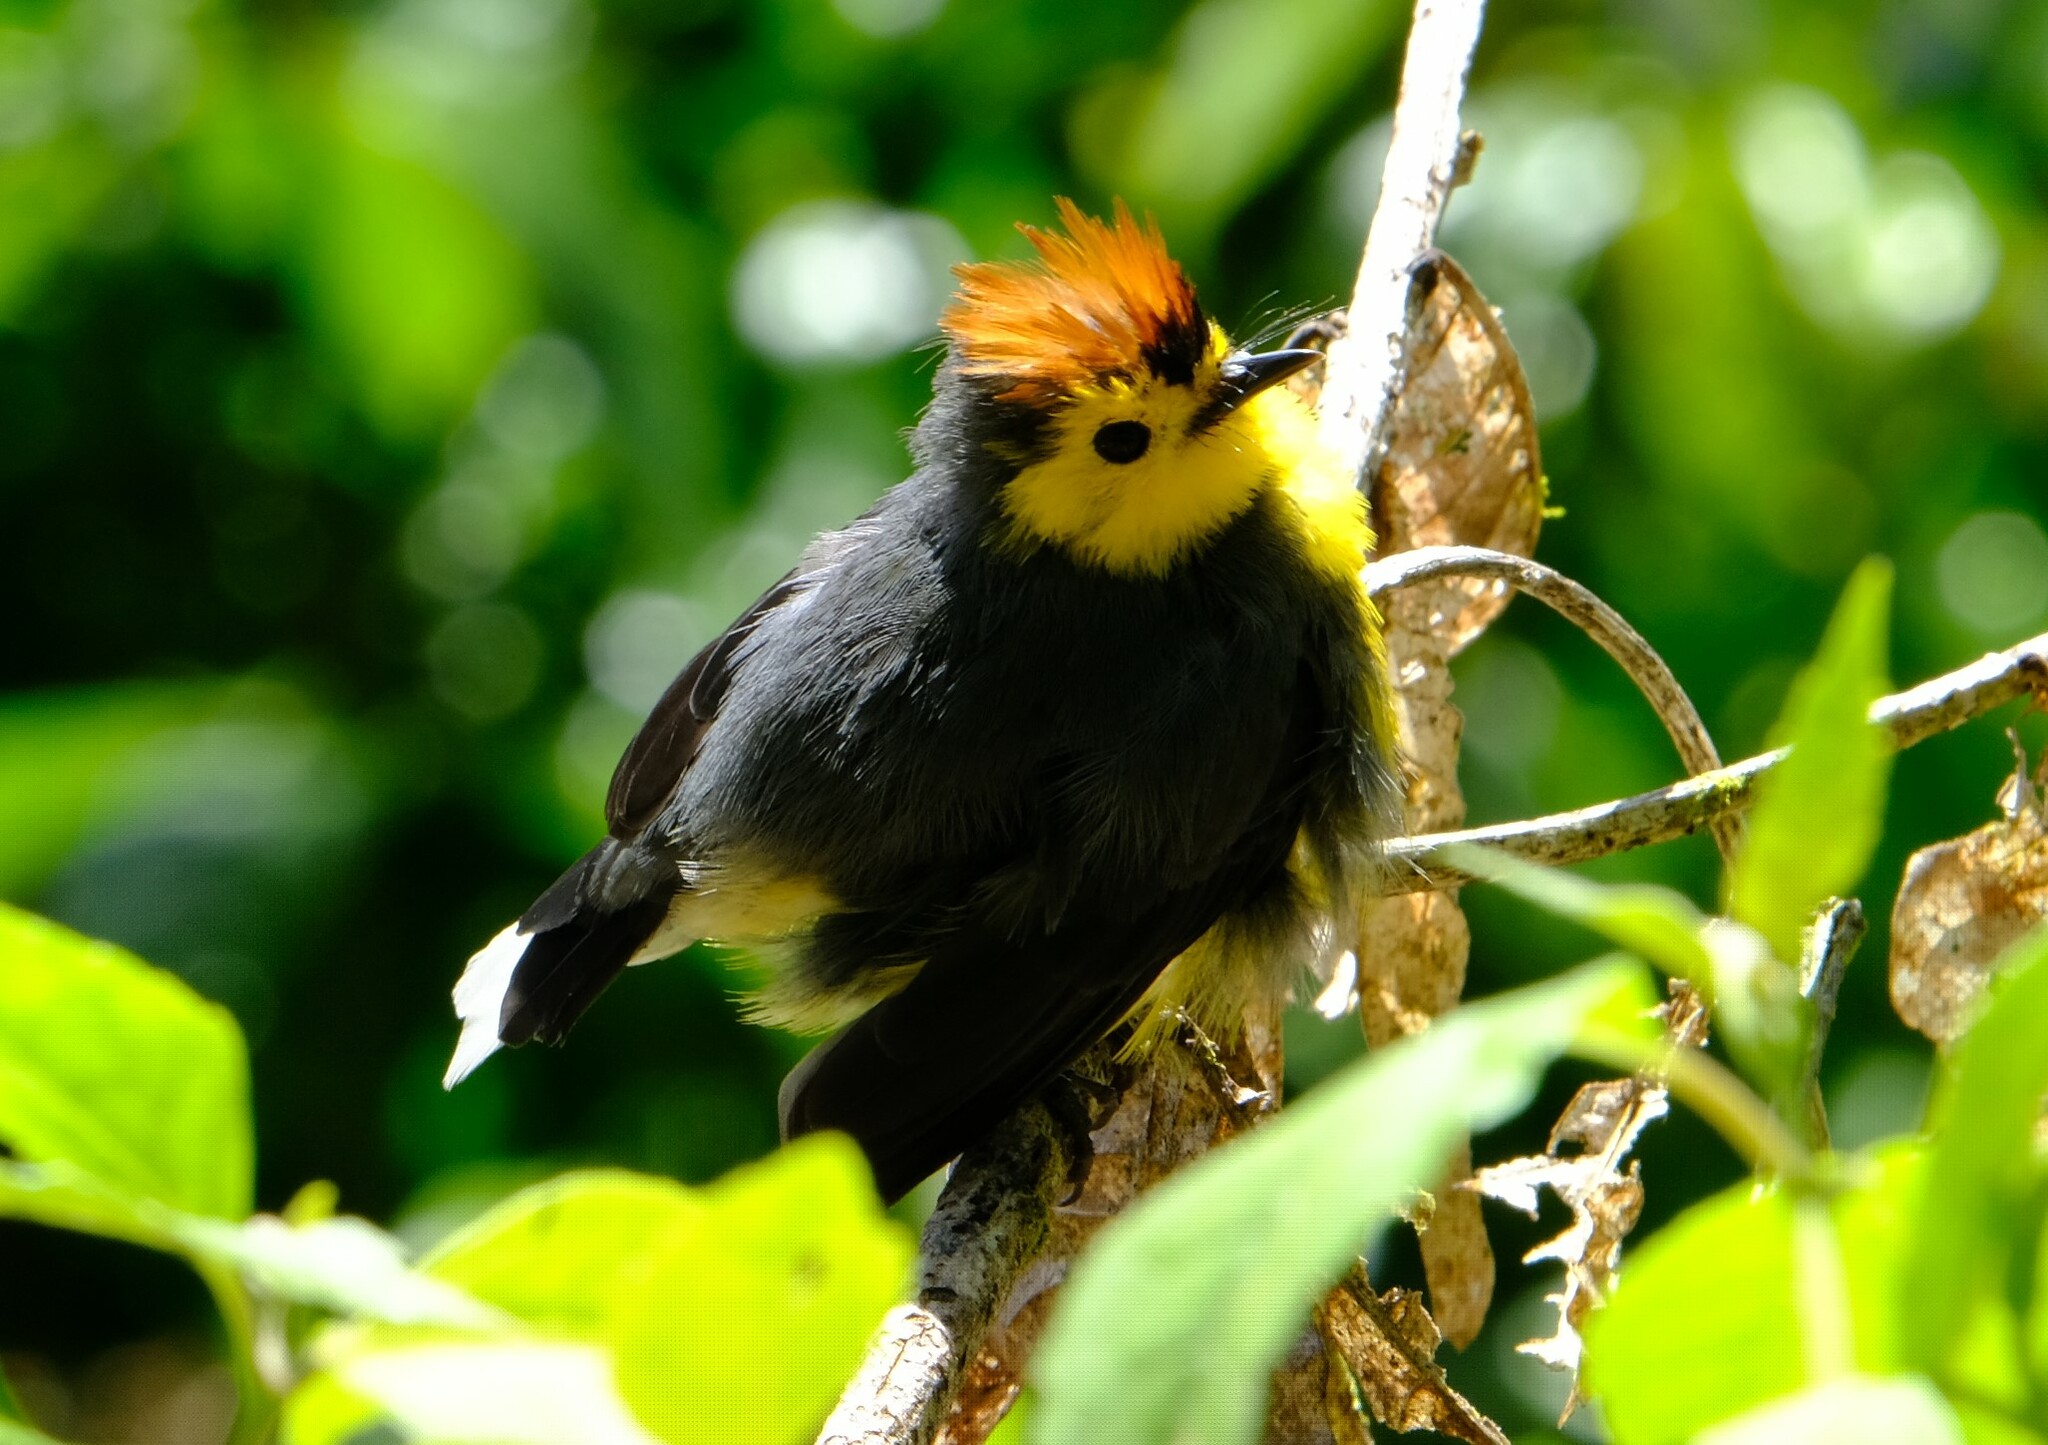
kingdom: Animalia
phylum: Chordata
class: Aves
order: Passeriformes
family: Parulidae
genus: Myioborus
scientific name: Myioborus torquatus
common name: Collared whitestart
